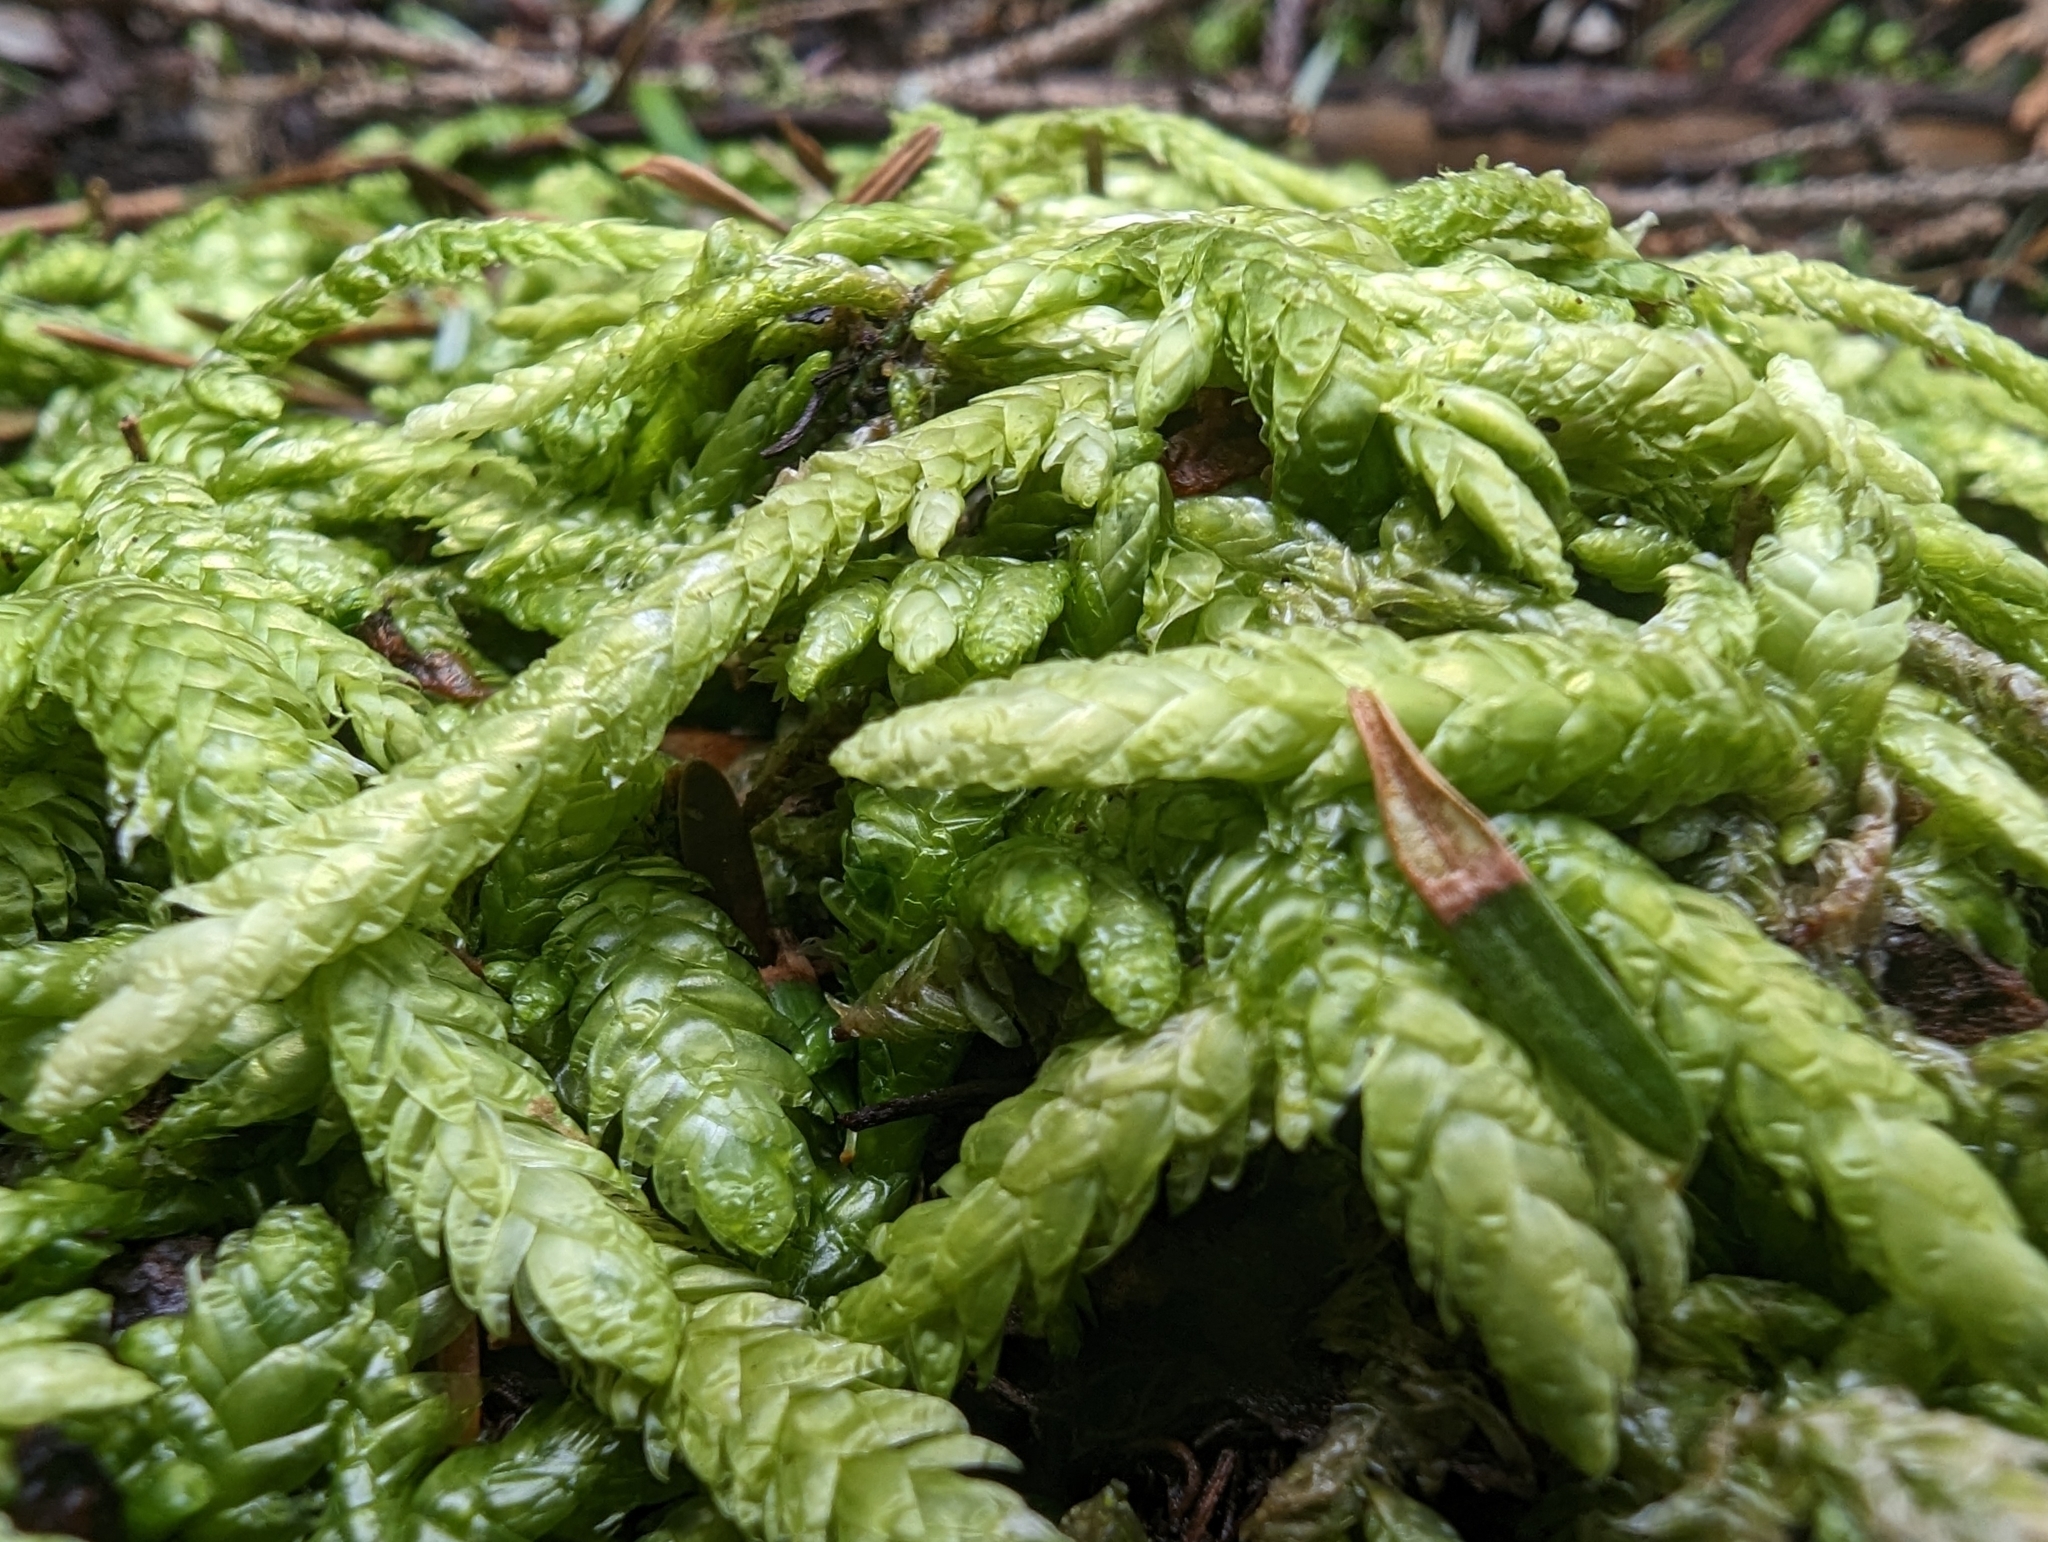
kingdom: Plantae
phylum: Bryophyta
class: Bryopsida
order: Hypnales
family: Plagiotheciaceae
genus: Plagiothecium
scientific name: Plagiothecium undulatum
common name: Waved silk-moss
